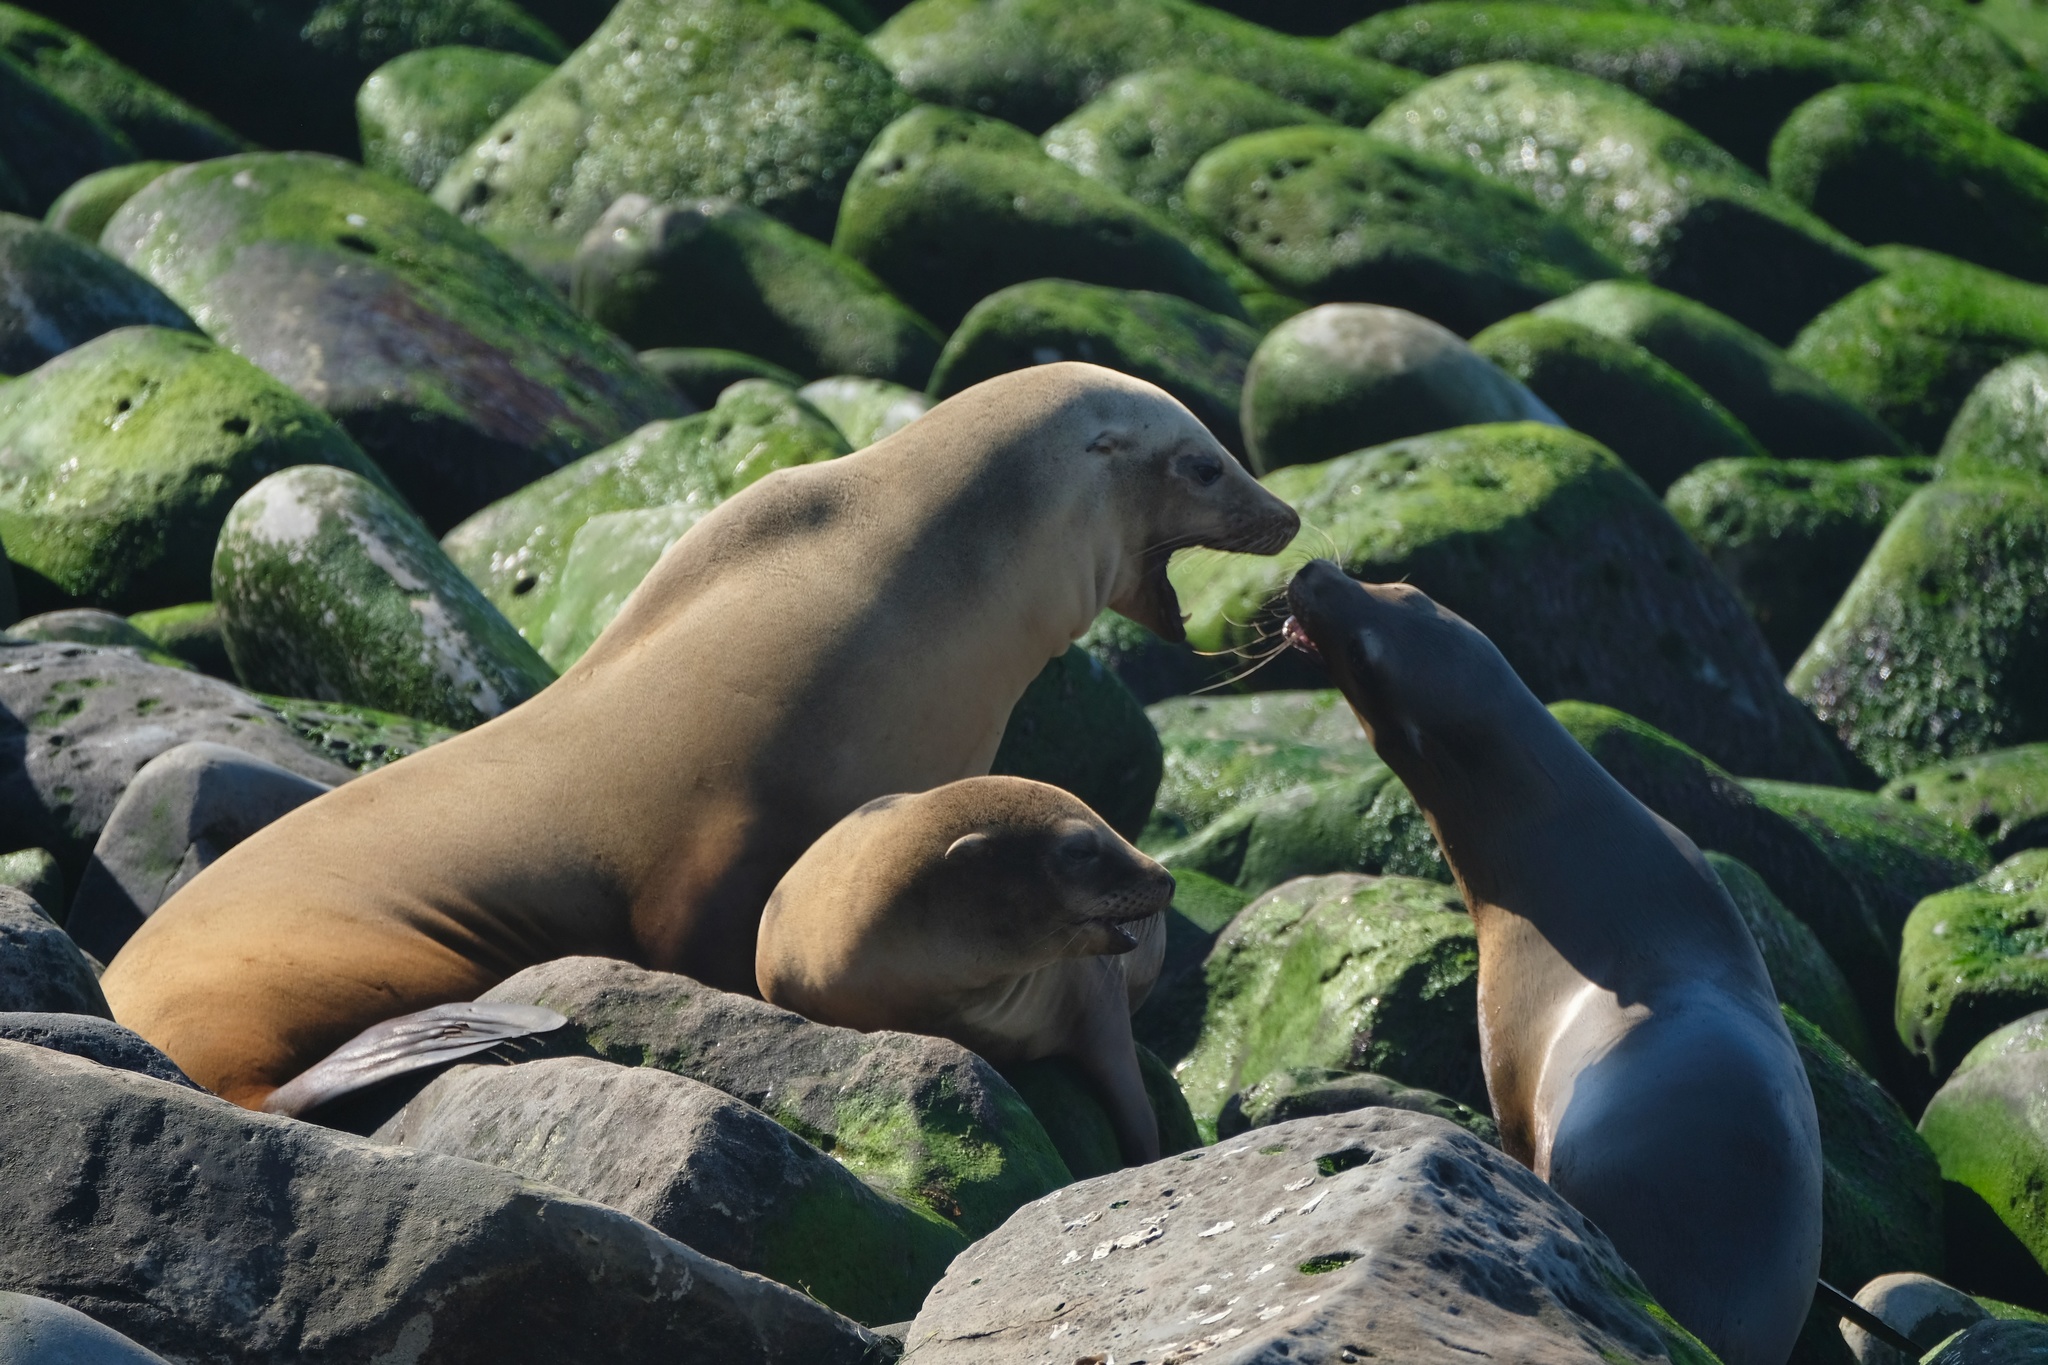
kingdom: Animalia
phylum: Chordata
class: Mammalia
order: Carnivora
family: Otariidae
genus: Zalophus
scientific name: Zalophus californianus
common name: California sea lion
